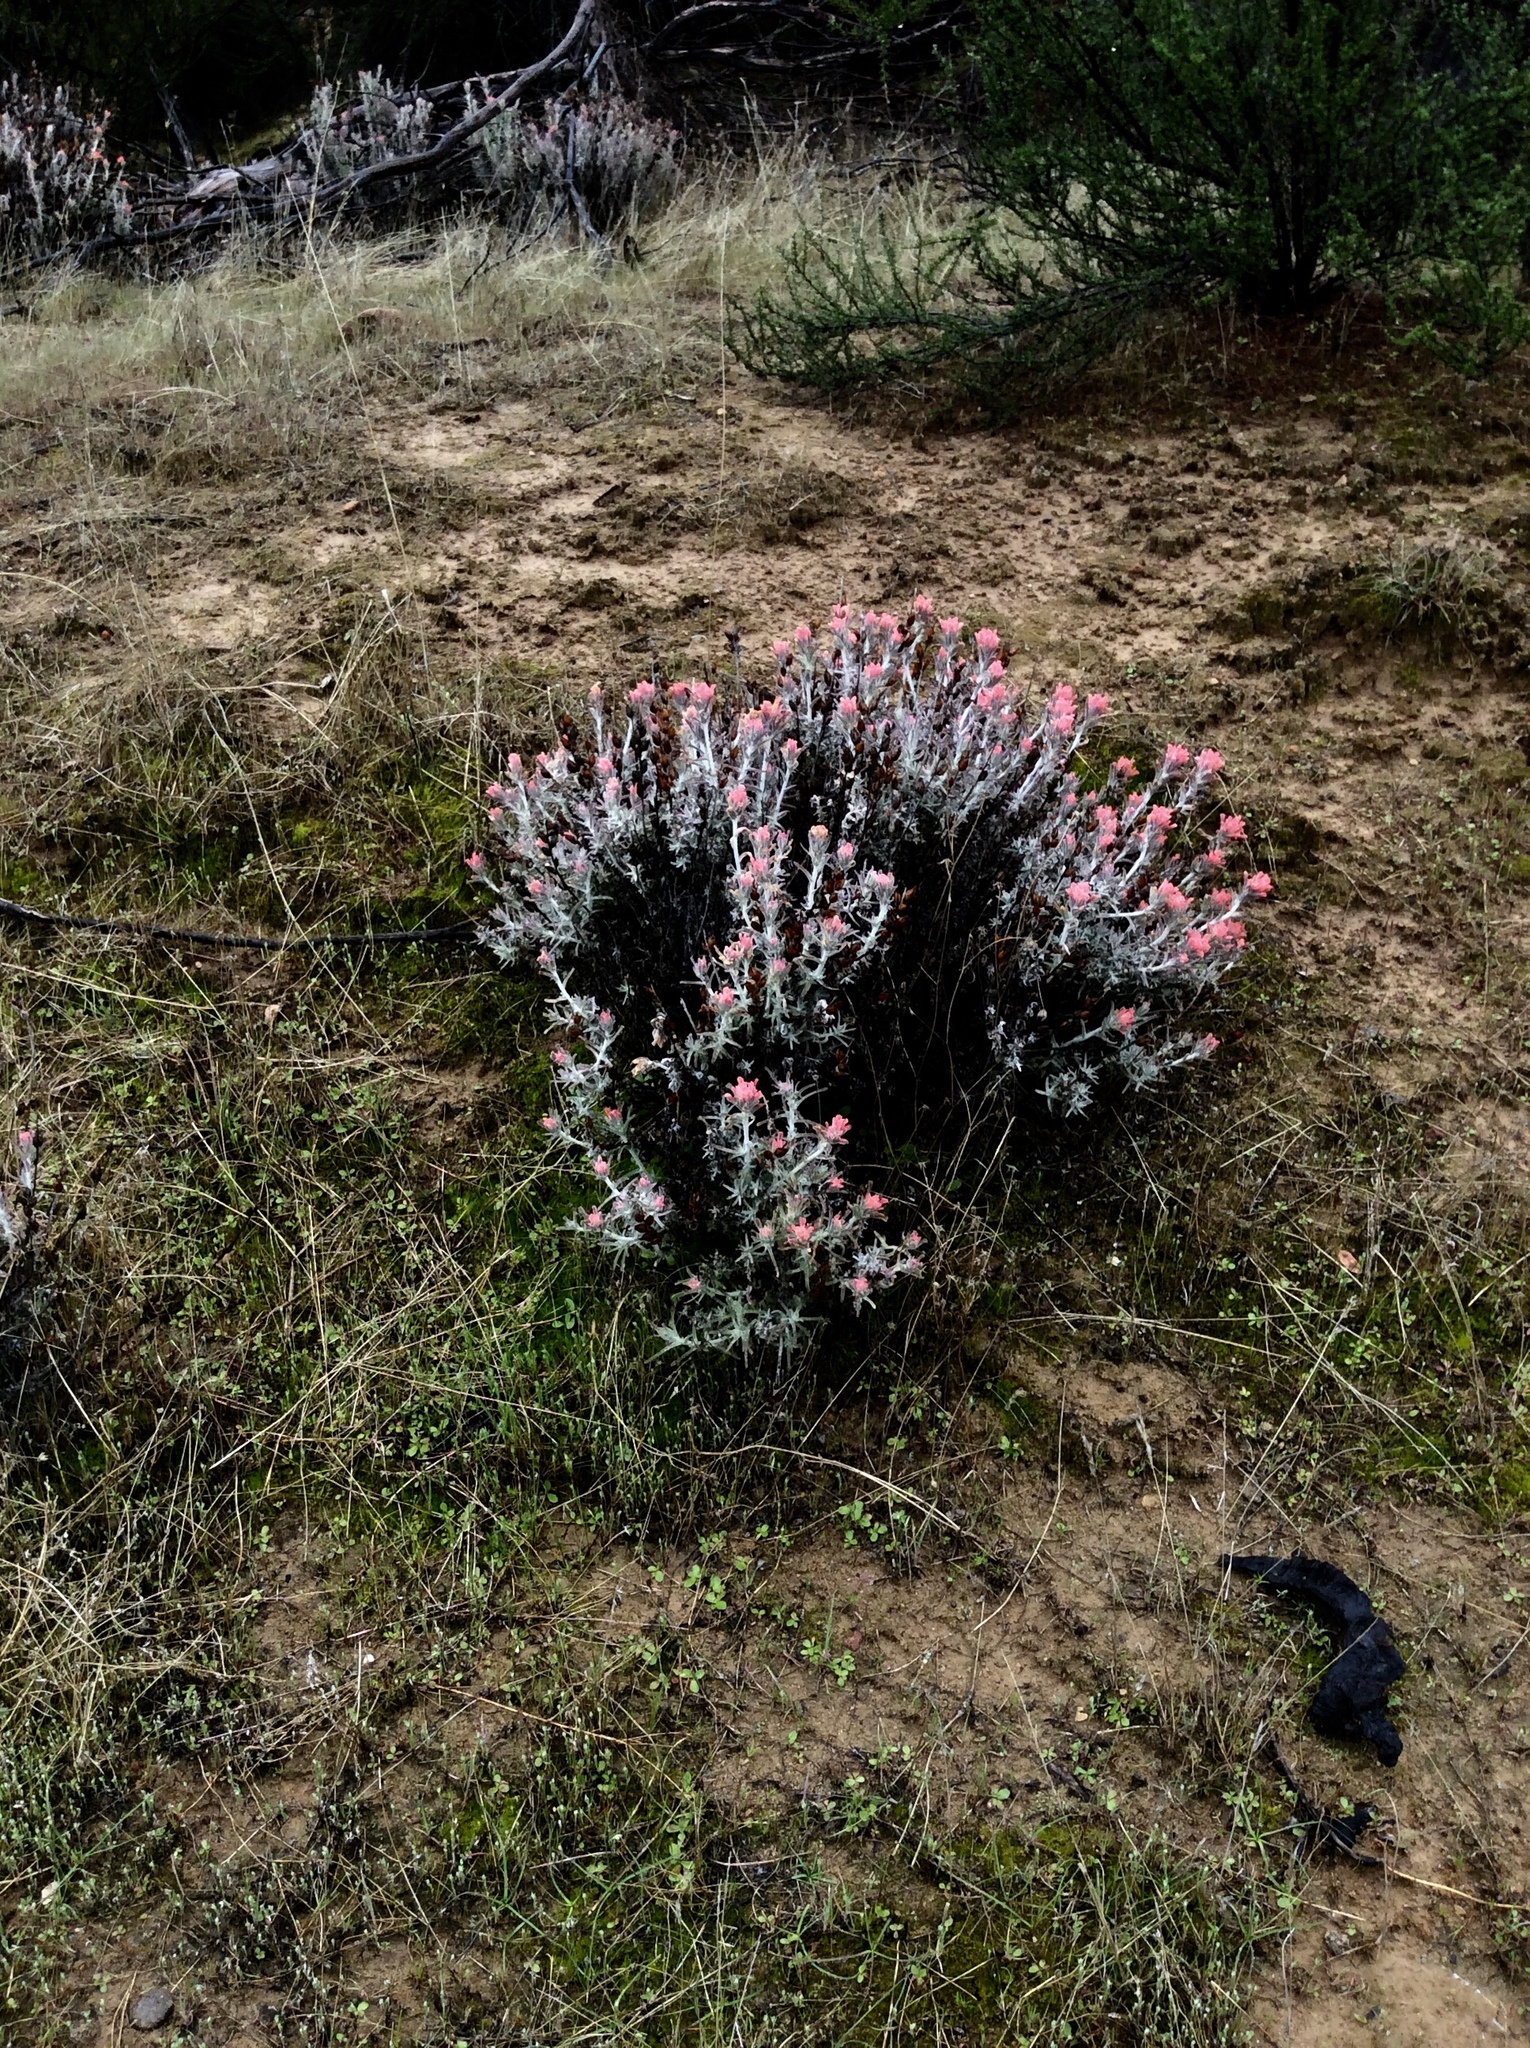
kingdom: Plantae
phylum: Tracheophyta
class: Magnoliopsida
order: Lamiales
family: Orobanchaceae
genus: Castilleja
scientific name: Castilleja foliolosa
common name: Woolly indian paintbrush
